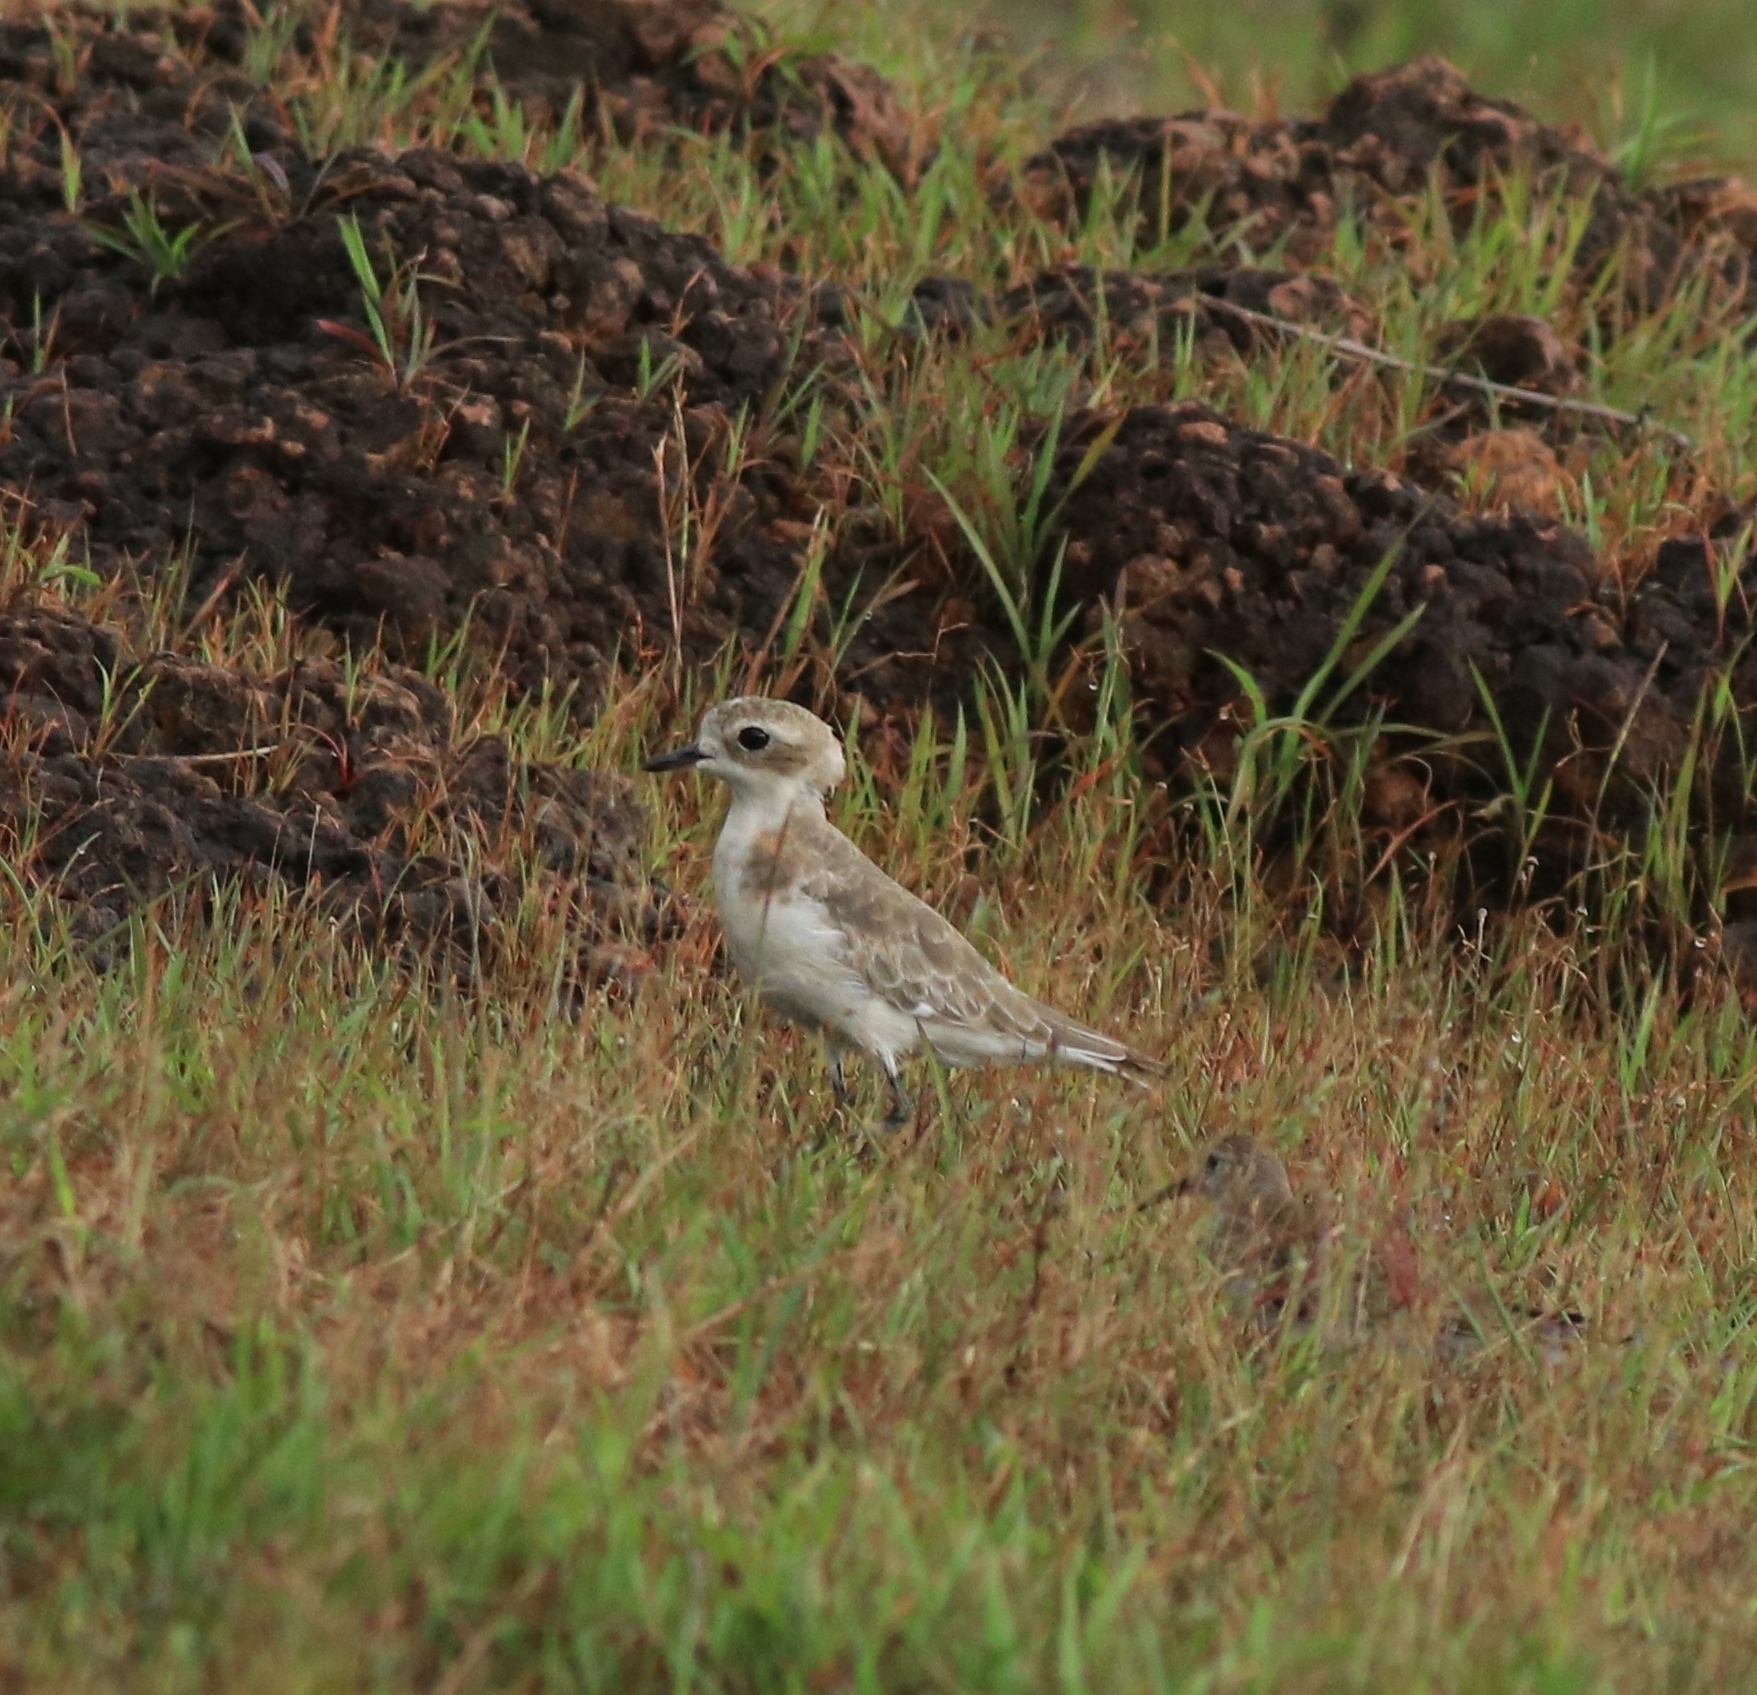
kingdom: Animalia
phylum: Chordata
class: Aves
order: Charadriiformes
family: Charadriidae
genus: Anarhynchus
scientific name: Anarhynchus
